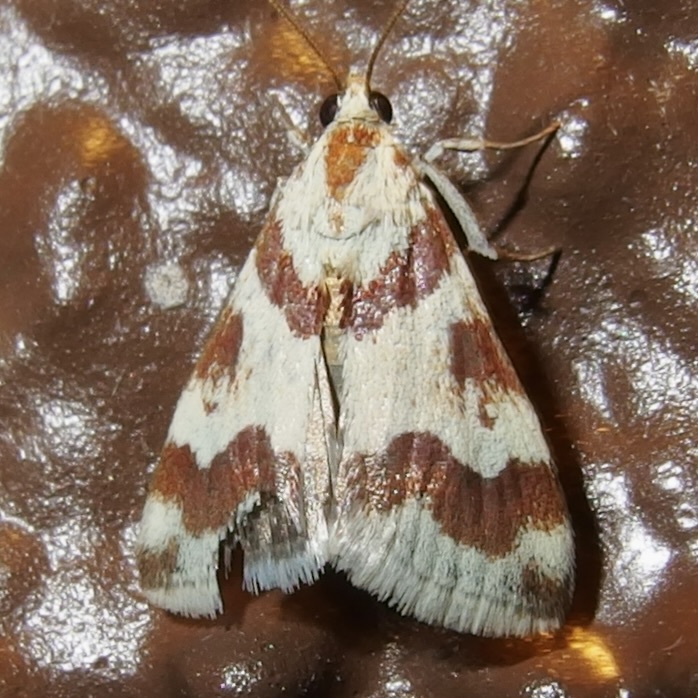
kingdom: Animalia
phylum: Arthropoda
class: Insecta
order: Lepidoptera
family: Crambidae
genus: Noctuelia
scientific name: Noctuelia Mimoschinia rufofascialis
